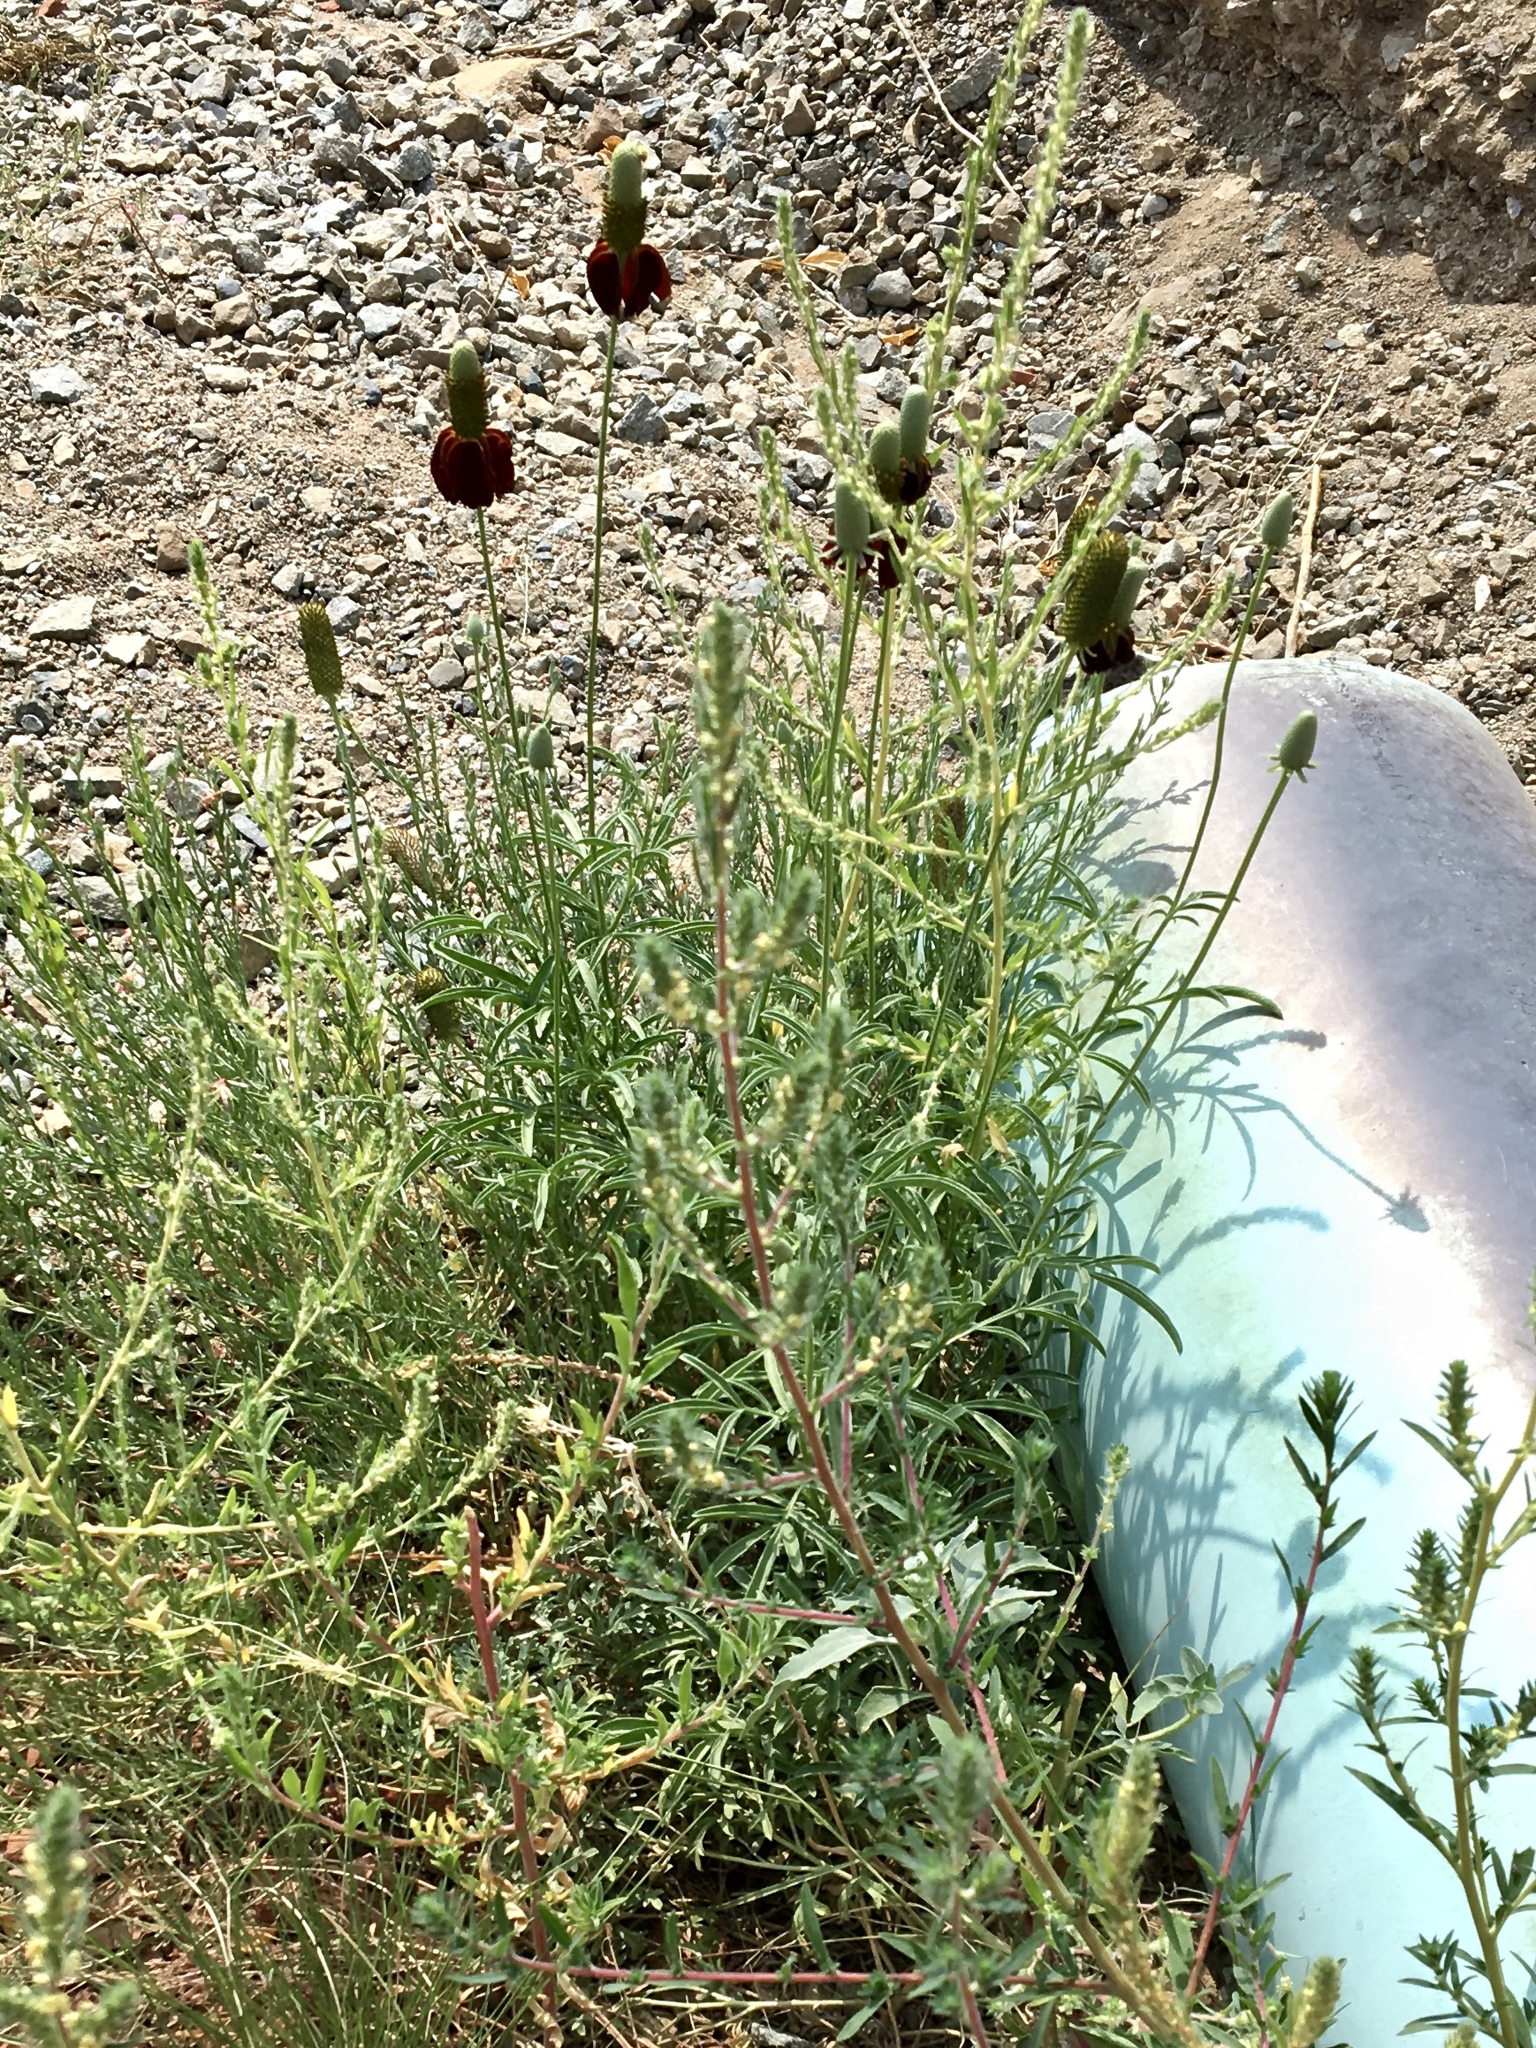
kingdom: Plantae
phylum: Tracheophyta
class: Magnoliopsida
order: Asterales
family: Asteraceae
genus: Ratibida
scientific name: Ratibida columnifera
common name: Prairie coneflower
